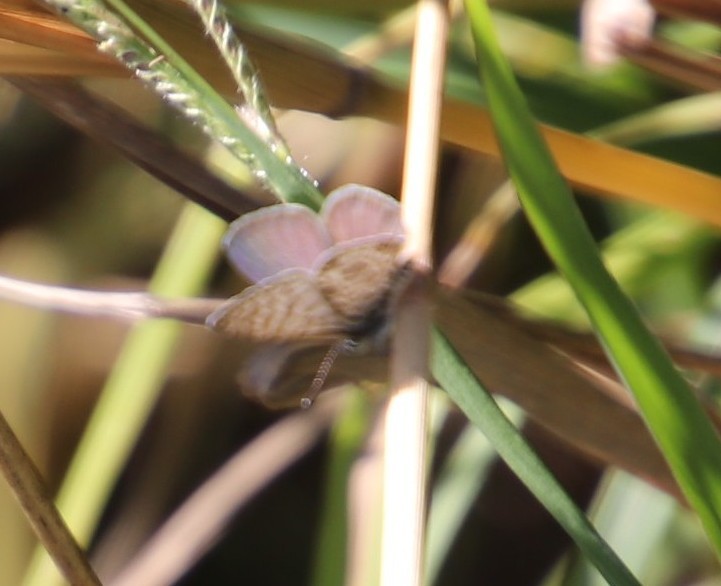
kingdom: Animalia
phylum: Arthropoda
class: Insecta
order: Lepidoptera
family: Lycaenidae
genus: Leptotes
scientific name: Leptotes
